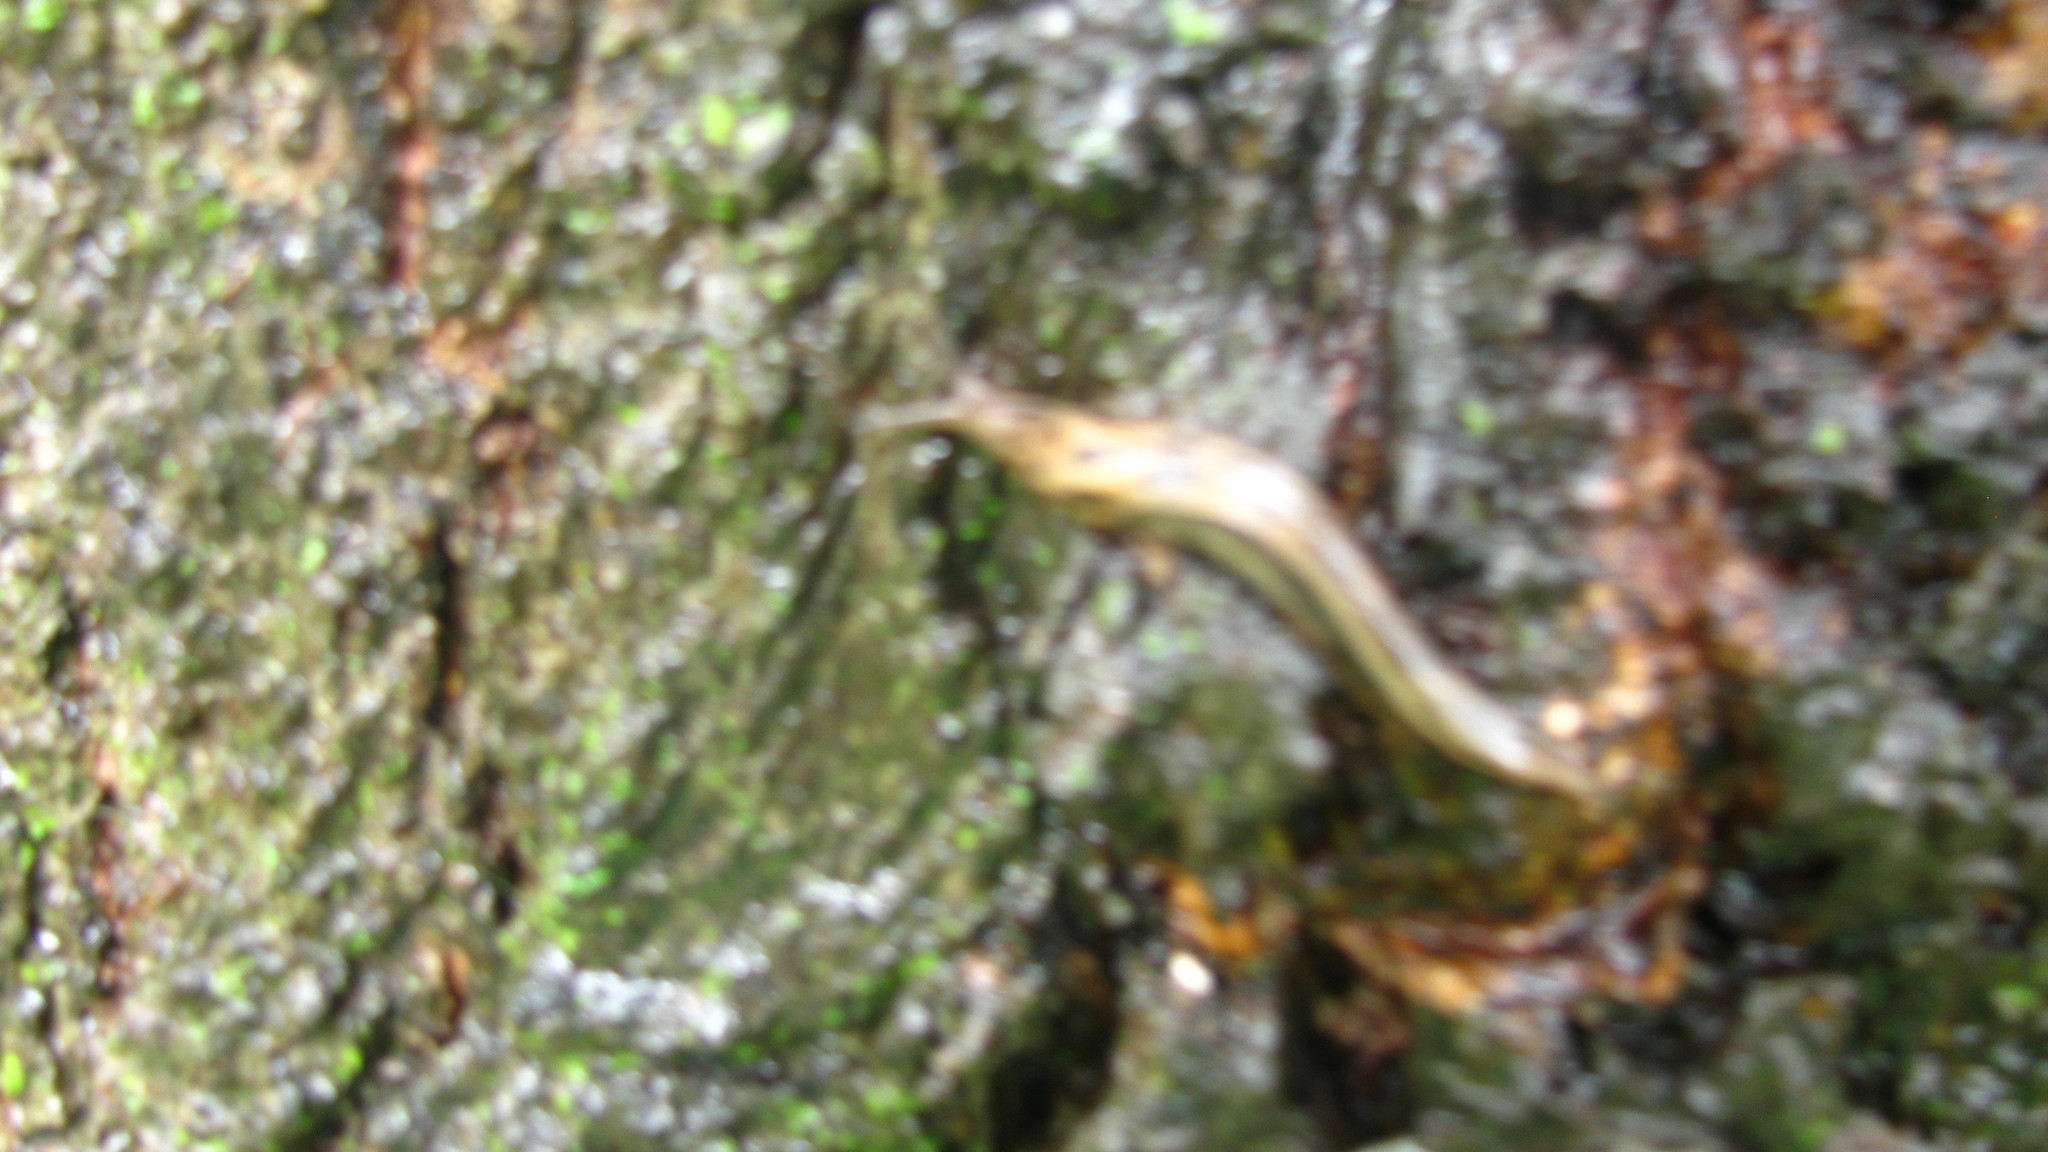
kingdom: Animalia
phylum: Mollusca
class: Gastropoda
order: Stylommatophora
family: Limacidae
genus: Limax
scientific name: Limax maximus
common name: Great grey slug
